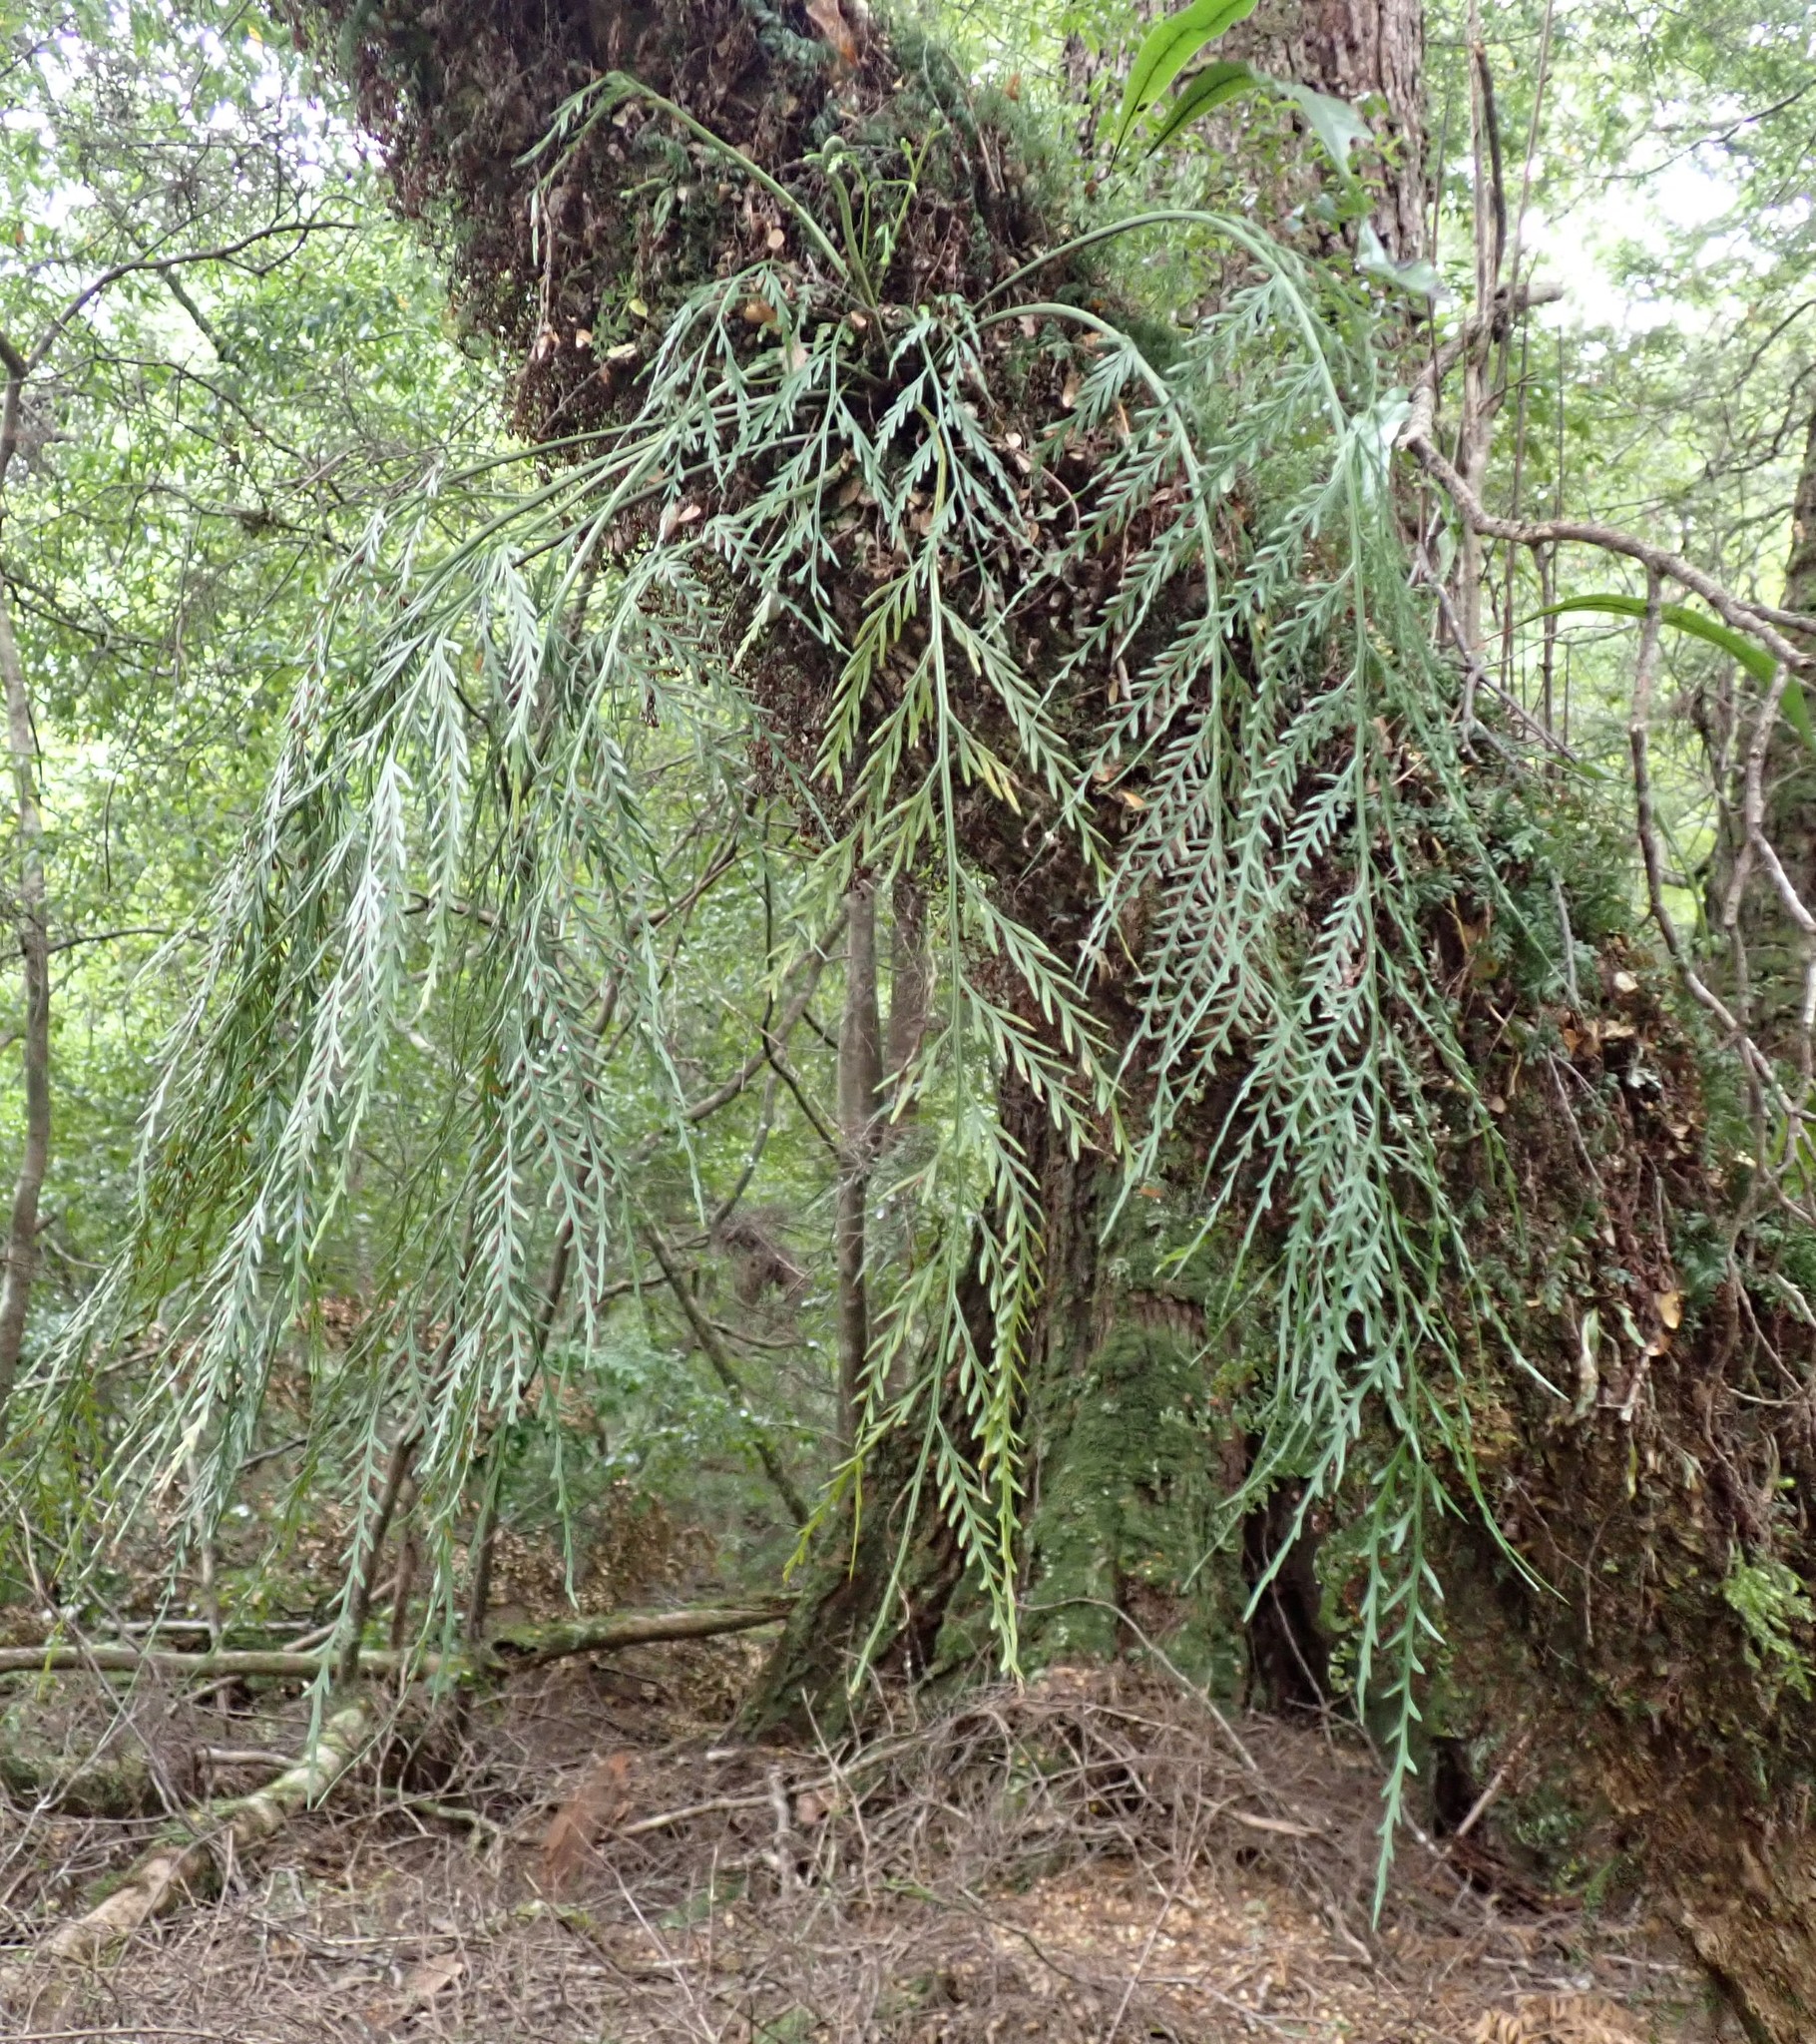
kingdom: Plantae
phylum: Tracheophyta
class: Polypodiopsida
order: Polypodiales
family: Aspleniaceae
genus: Asplenium
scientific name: Asplenium flaccidum
